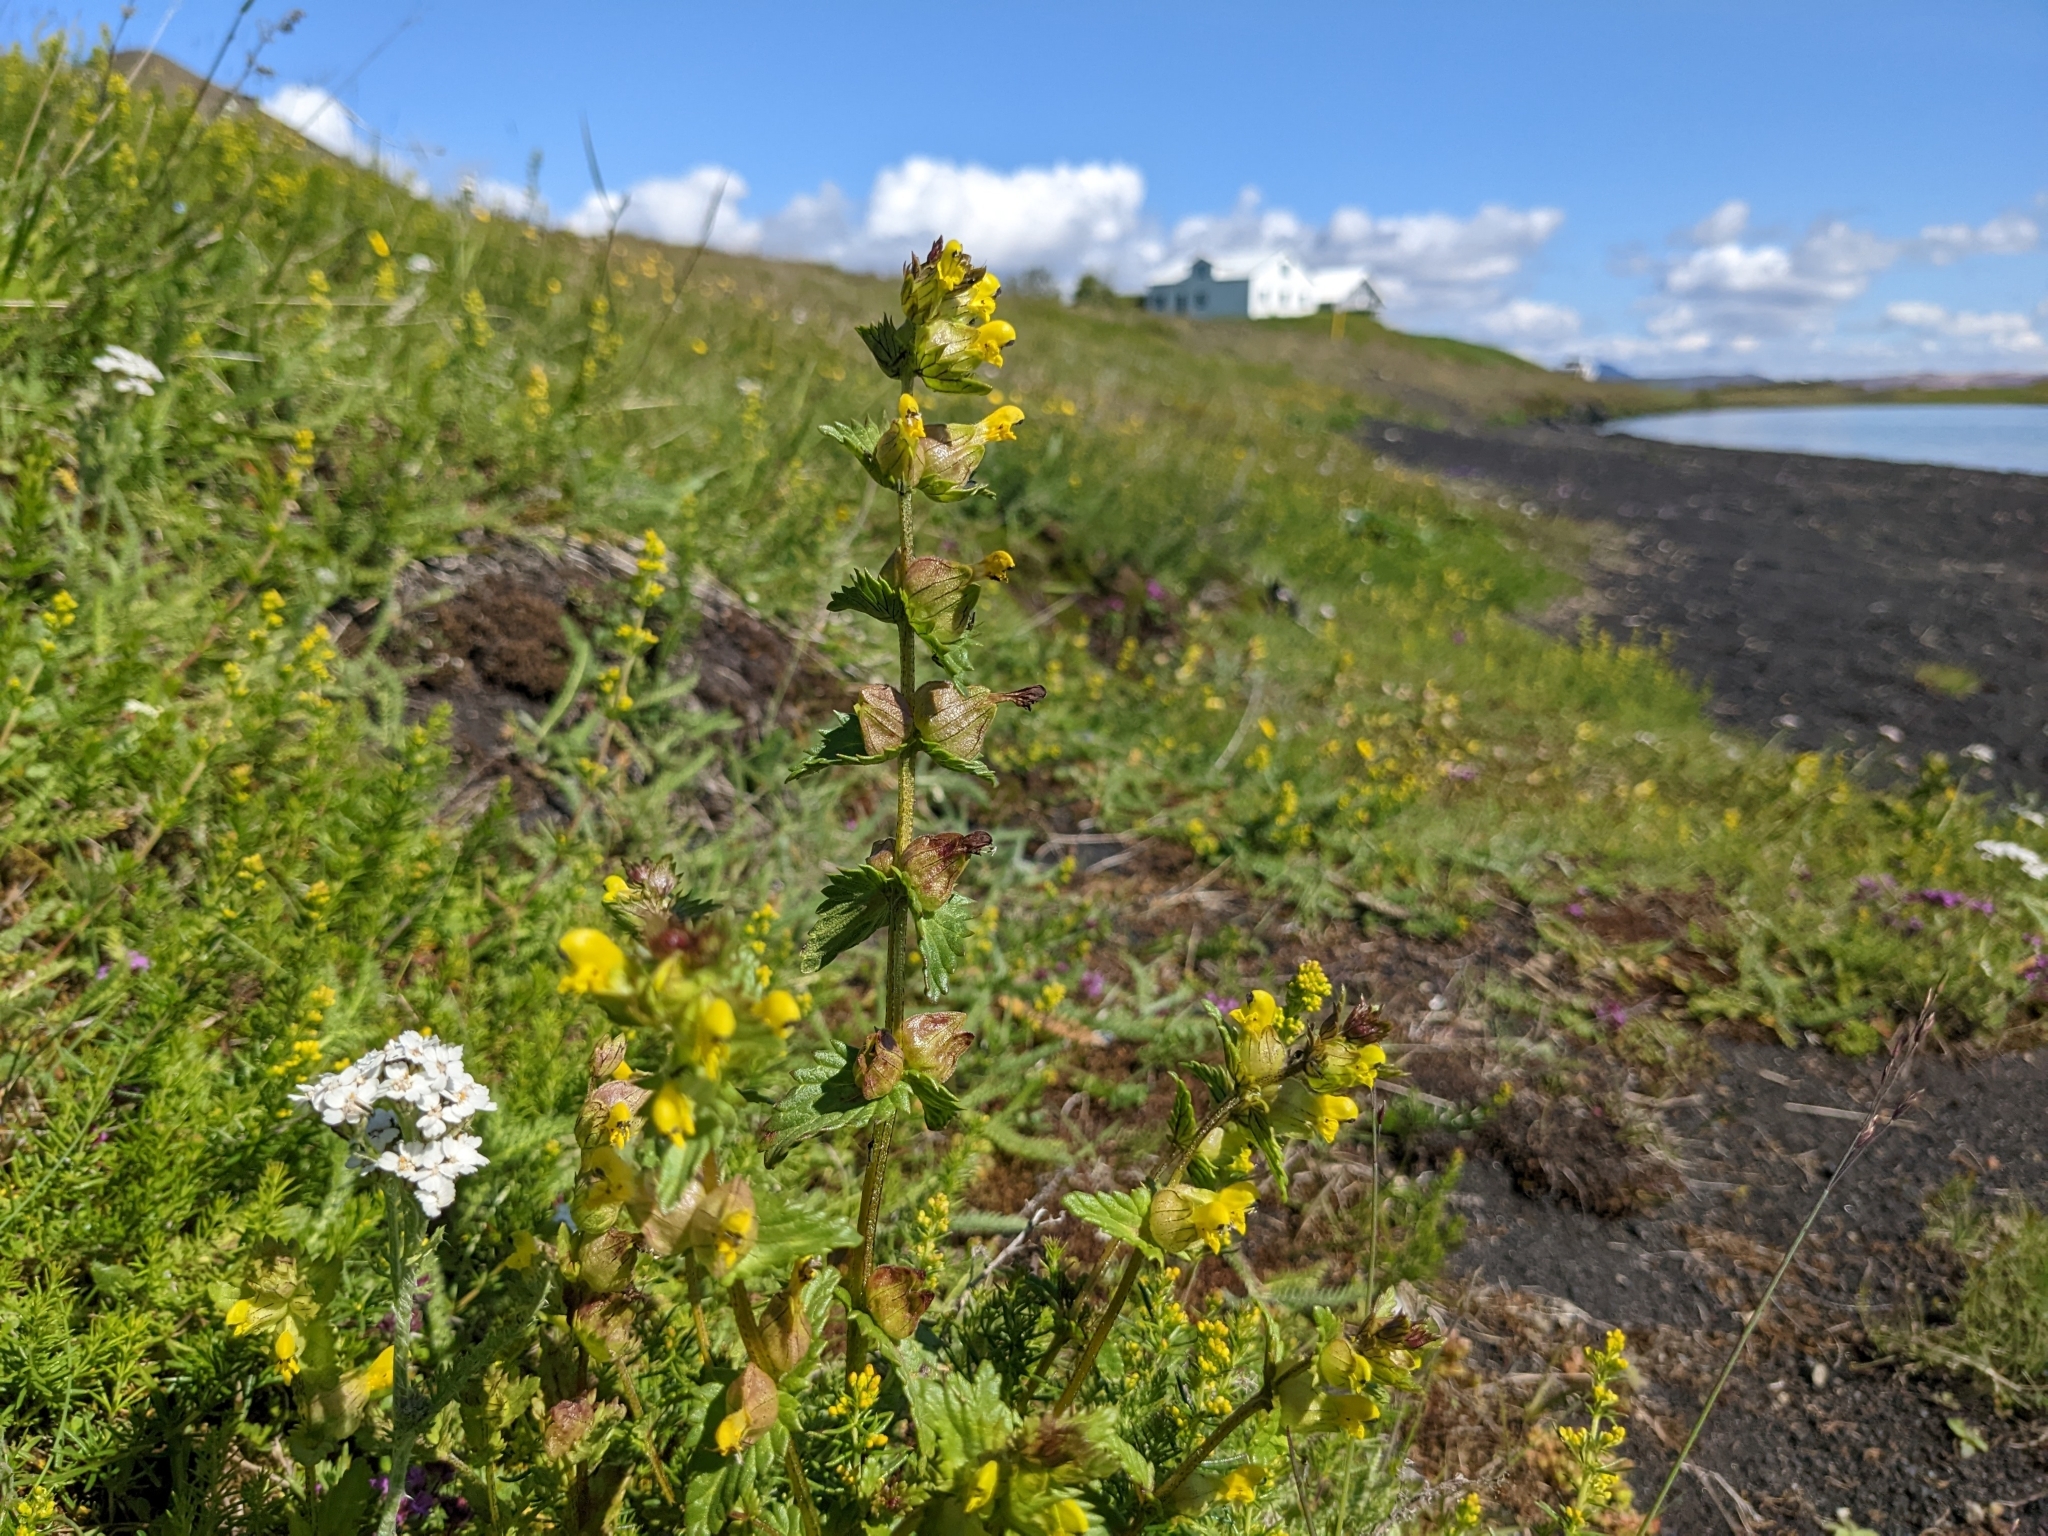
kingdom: Plantae
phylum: Tracheophyta
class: Magnoliopsida
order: Lamiales
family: Orobanchaceae
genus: Rhinanthus
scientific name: Rhinanthus minor
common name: Yellow-rattle
